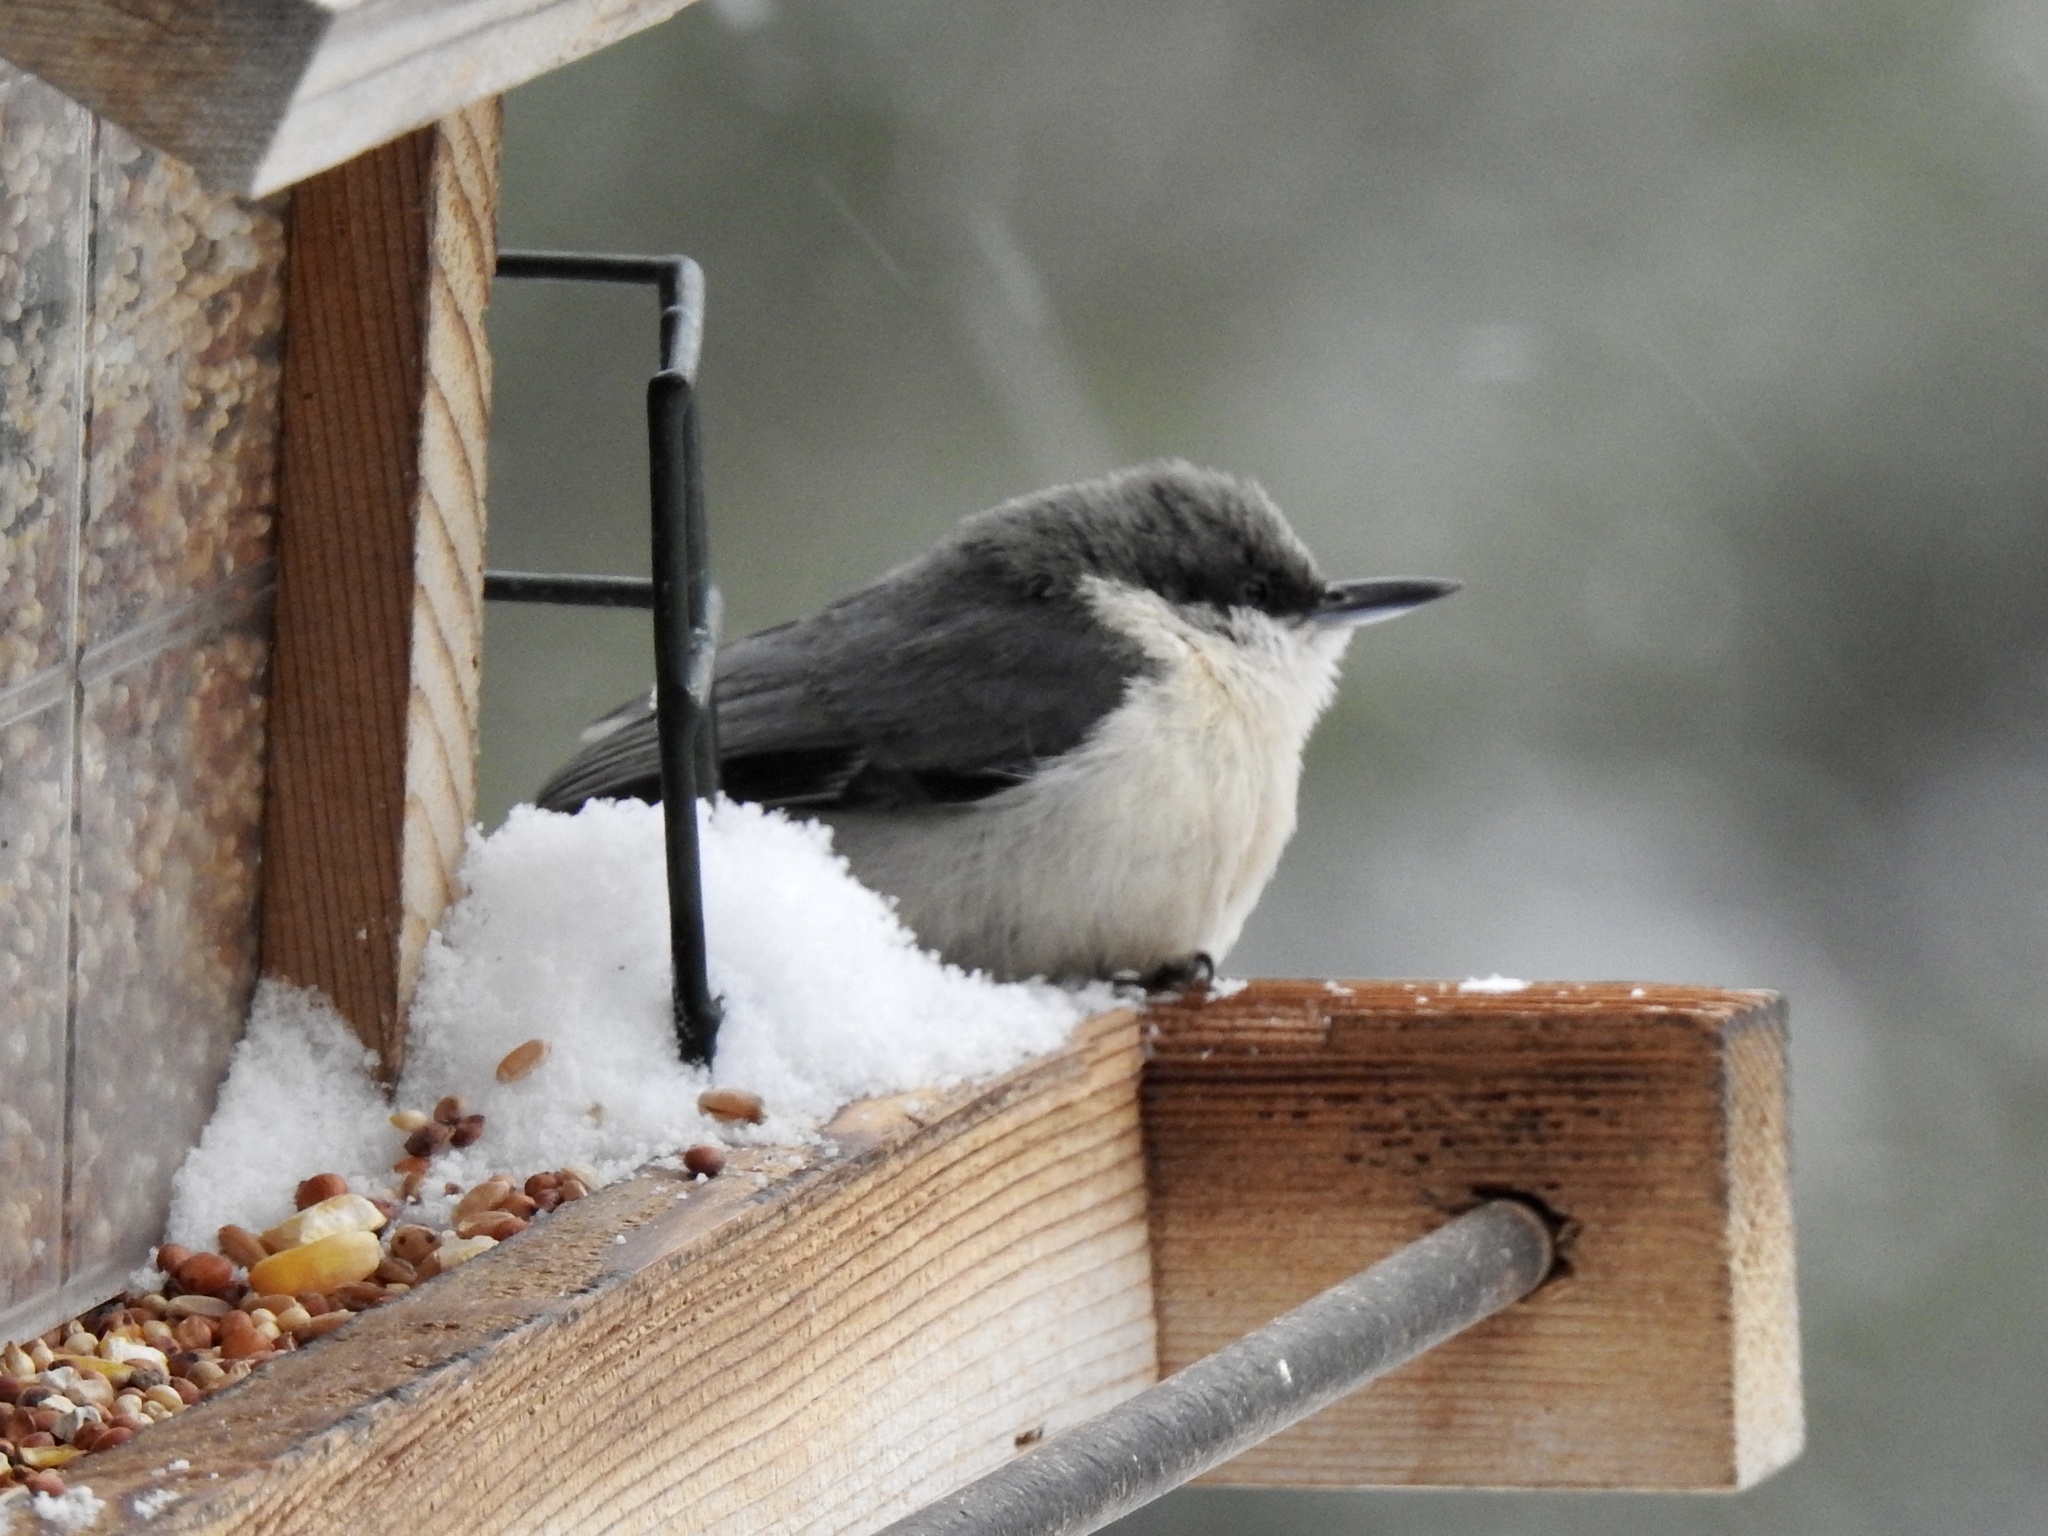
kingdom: Animalia
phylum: Chordata
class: Aves
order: Passeriformes
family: Sittidae
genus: Sitta
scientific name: Sitta pygmaea
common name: Pygmy nuthatch
